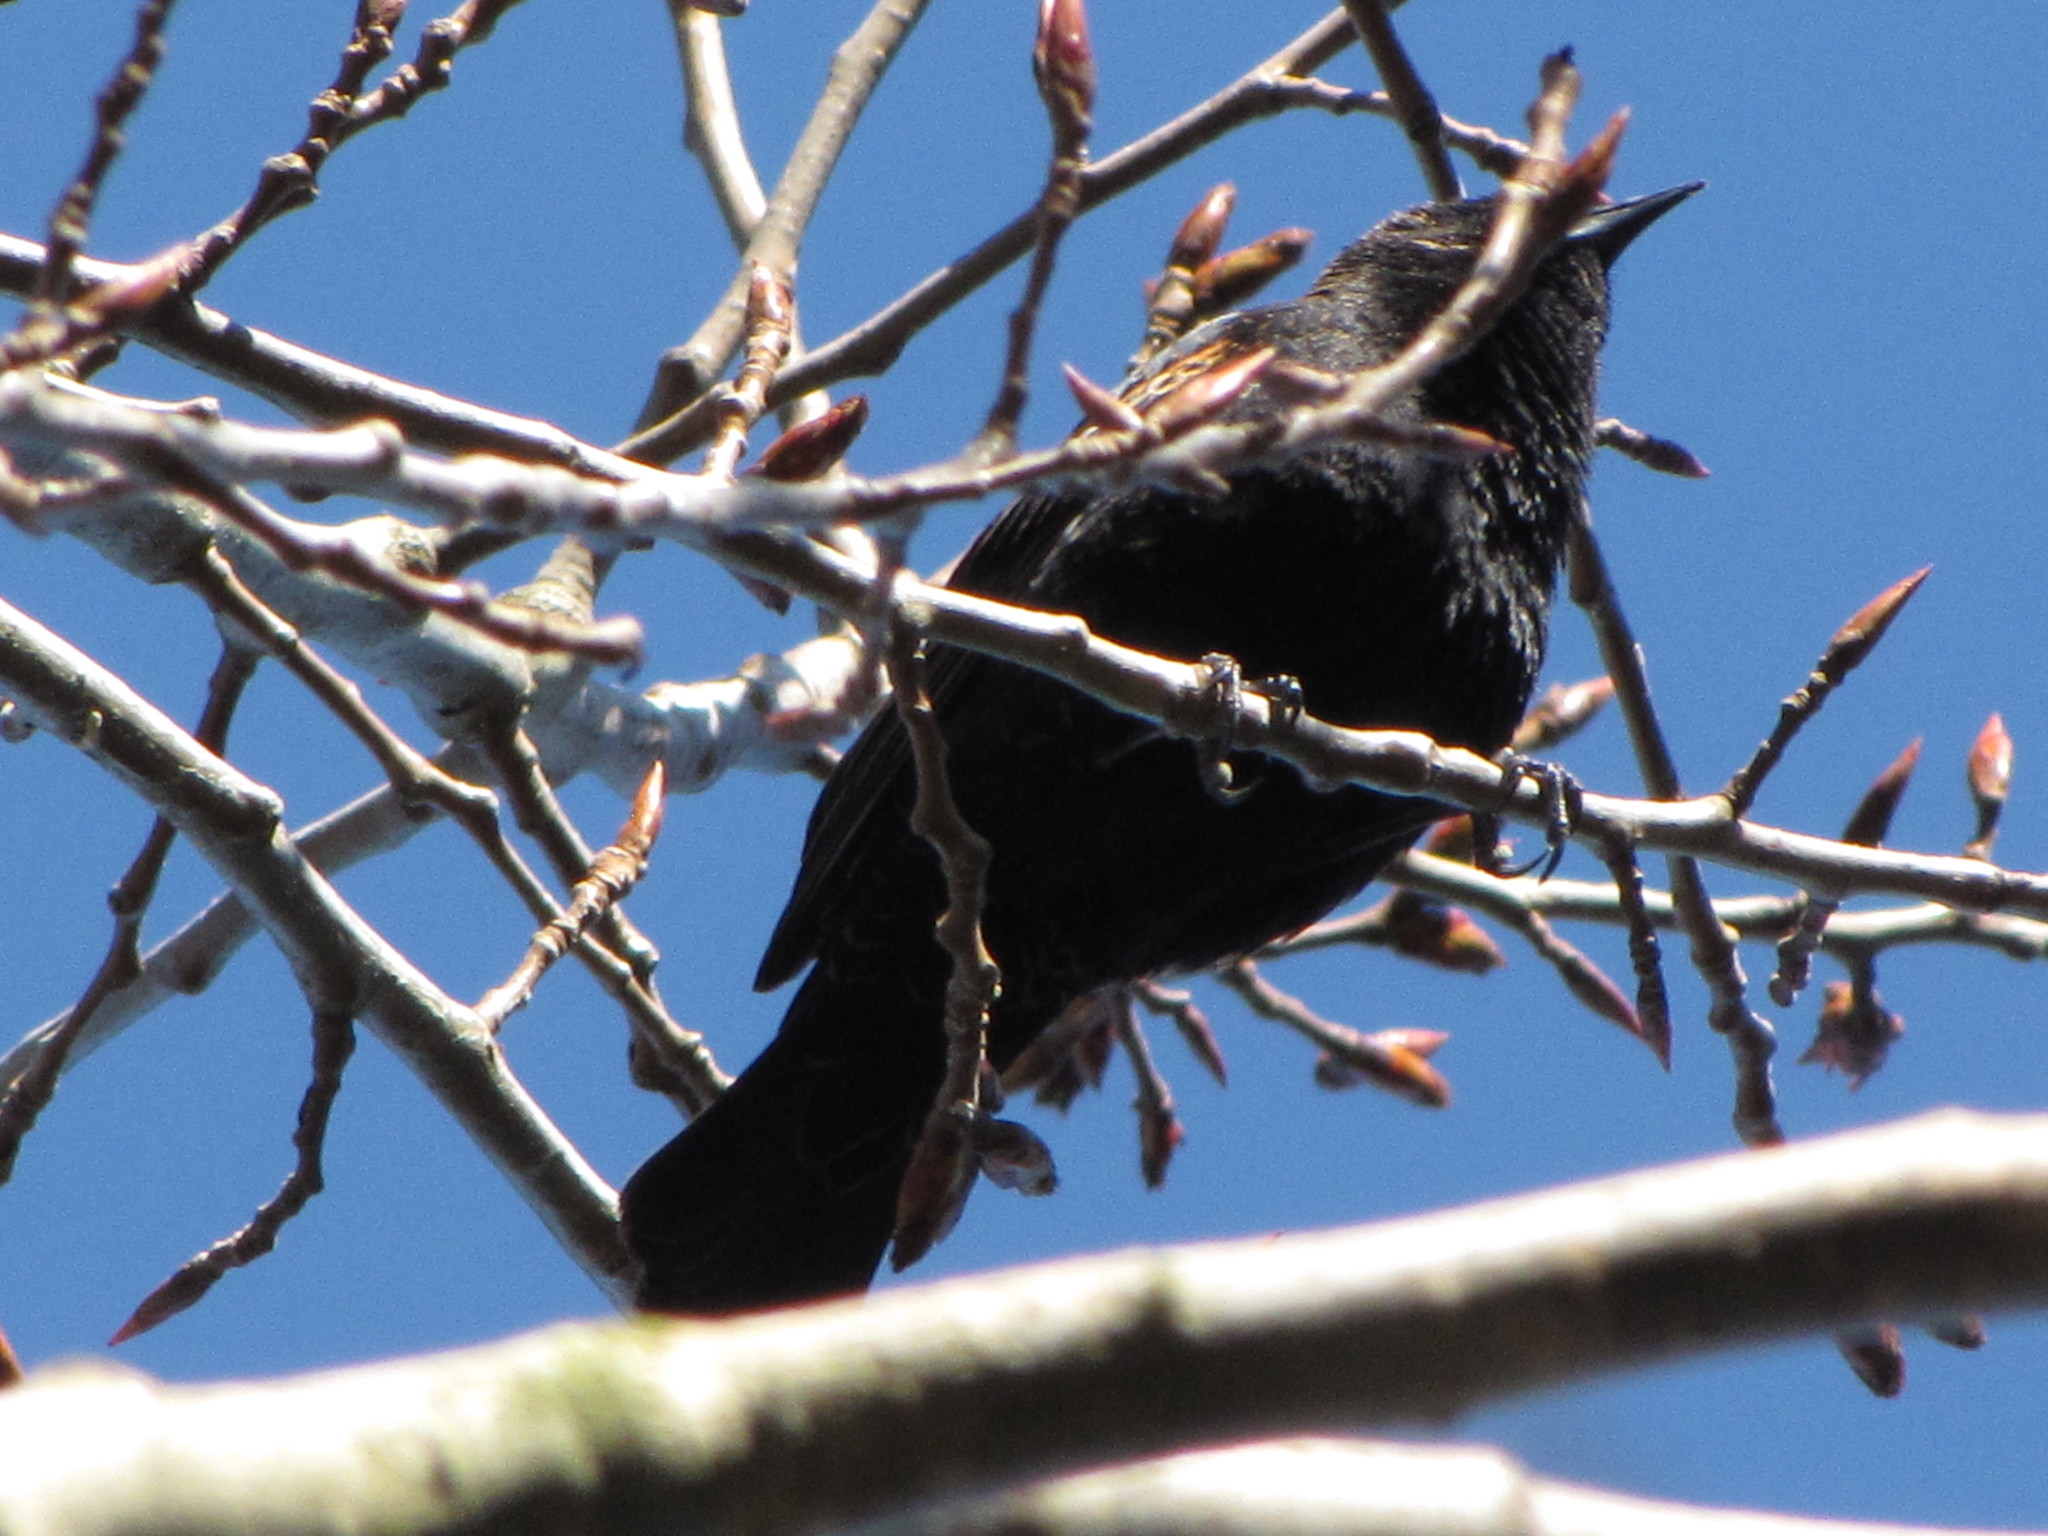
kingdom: Animalia
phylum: Chordata
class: Aves
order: Passeriformes
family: Icteridae
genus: Agelaius
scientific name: Agelaius phoeniceus
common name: Red-winged blackbird
